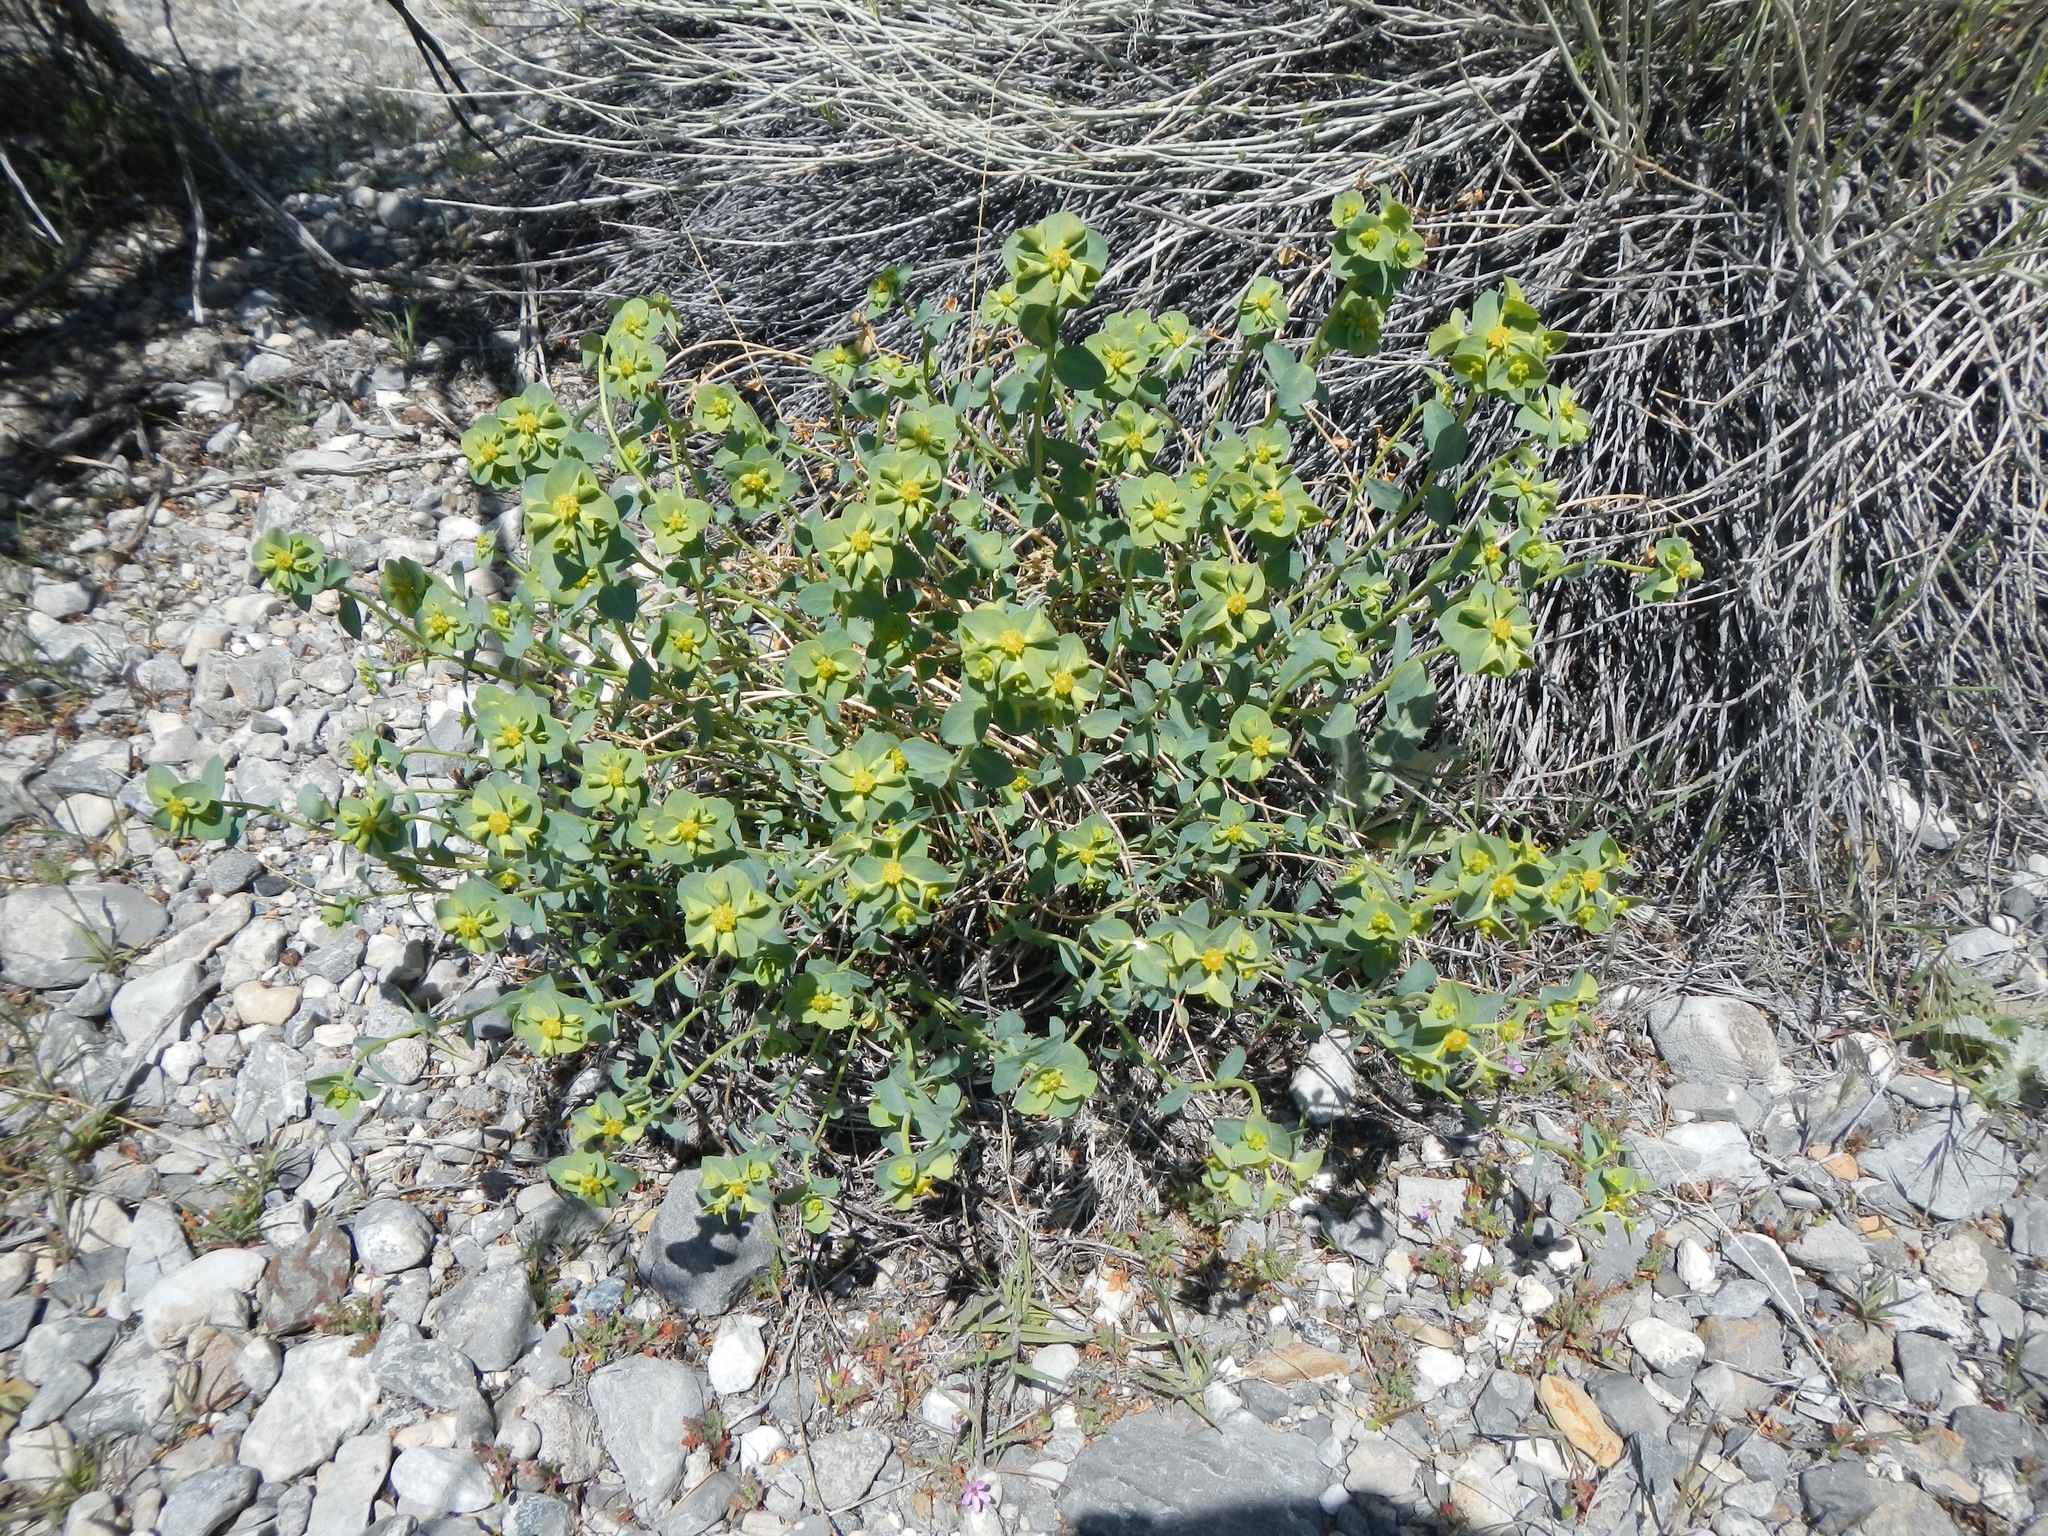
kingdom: Plantae
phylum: Tracheophyta
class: Magnoliopsida
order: Malpighiales
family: Euphorbiaceae
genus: Euphorbia
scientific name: Euphorbia schizoloba
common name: Mojave spurge
